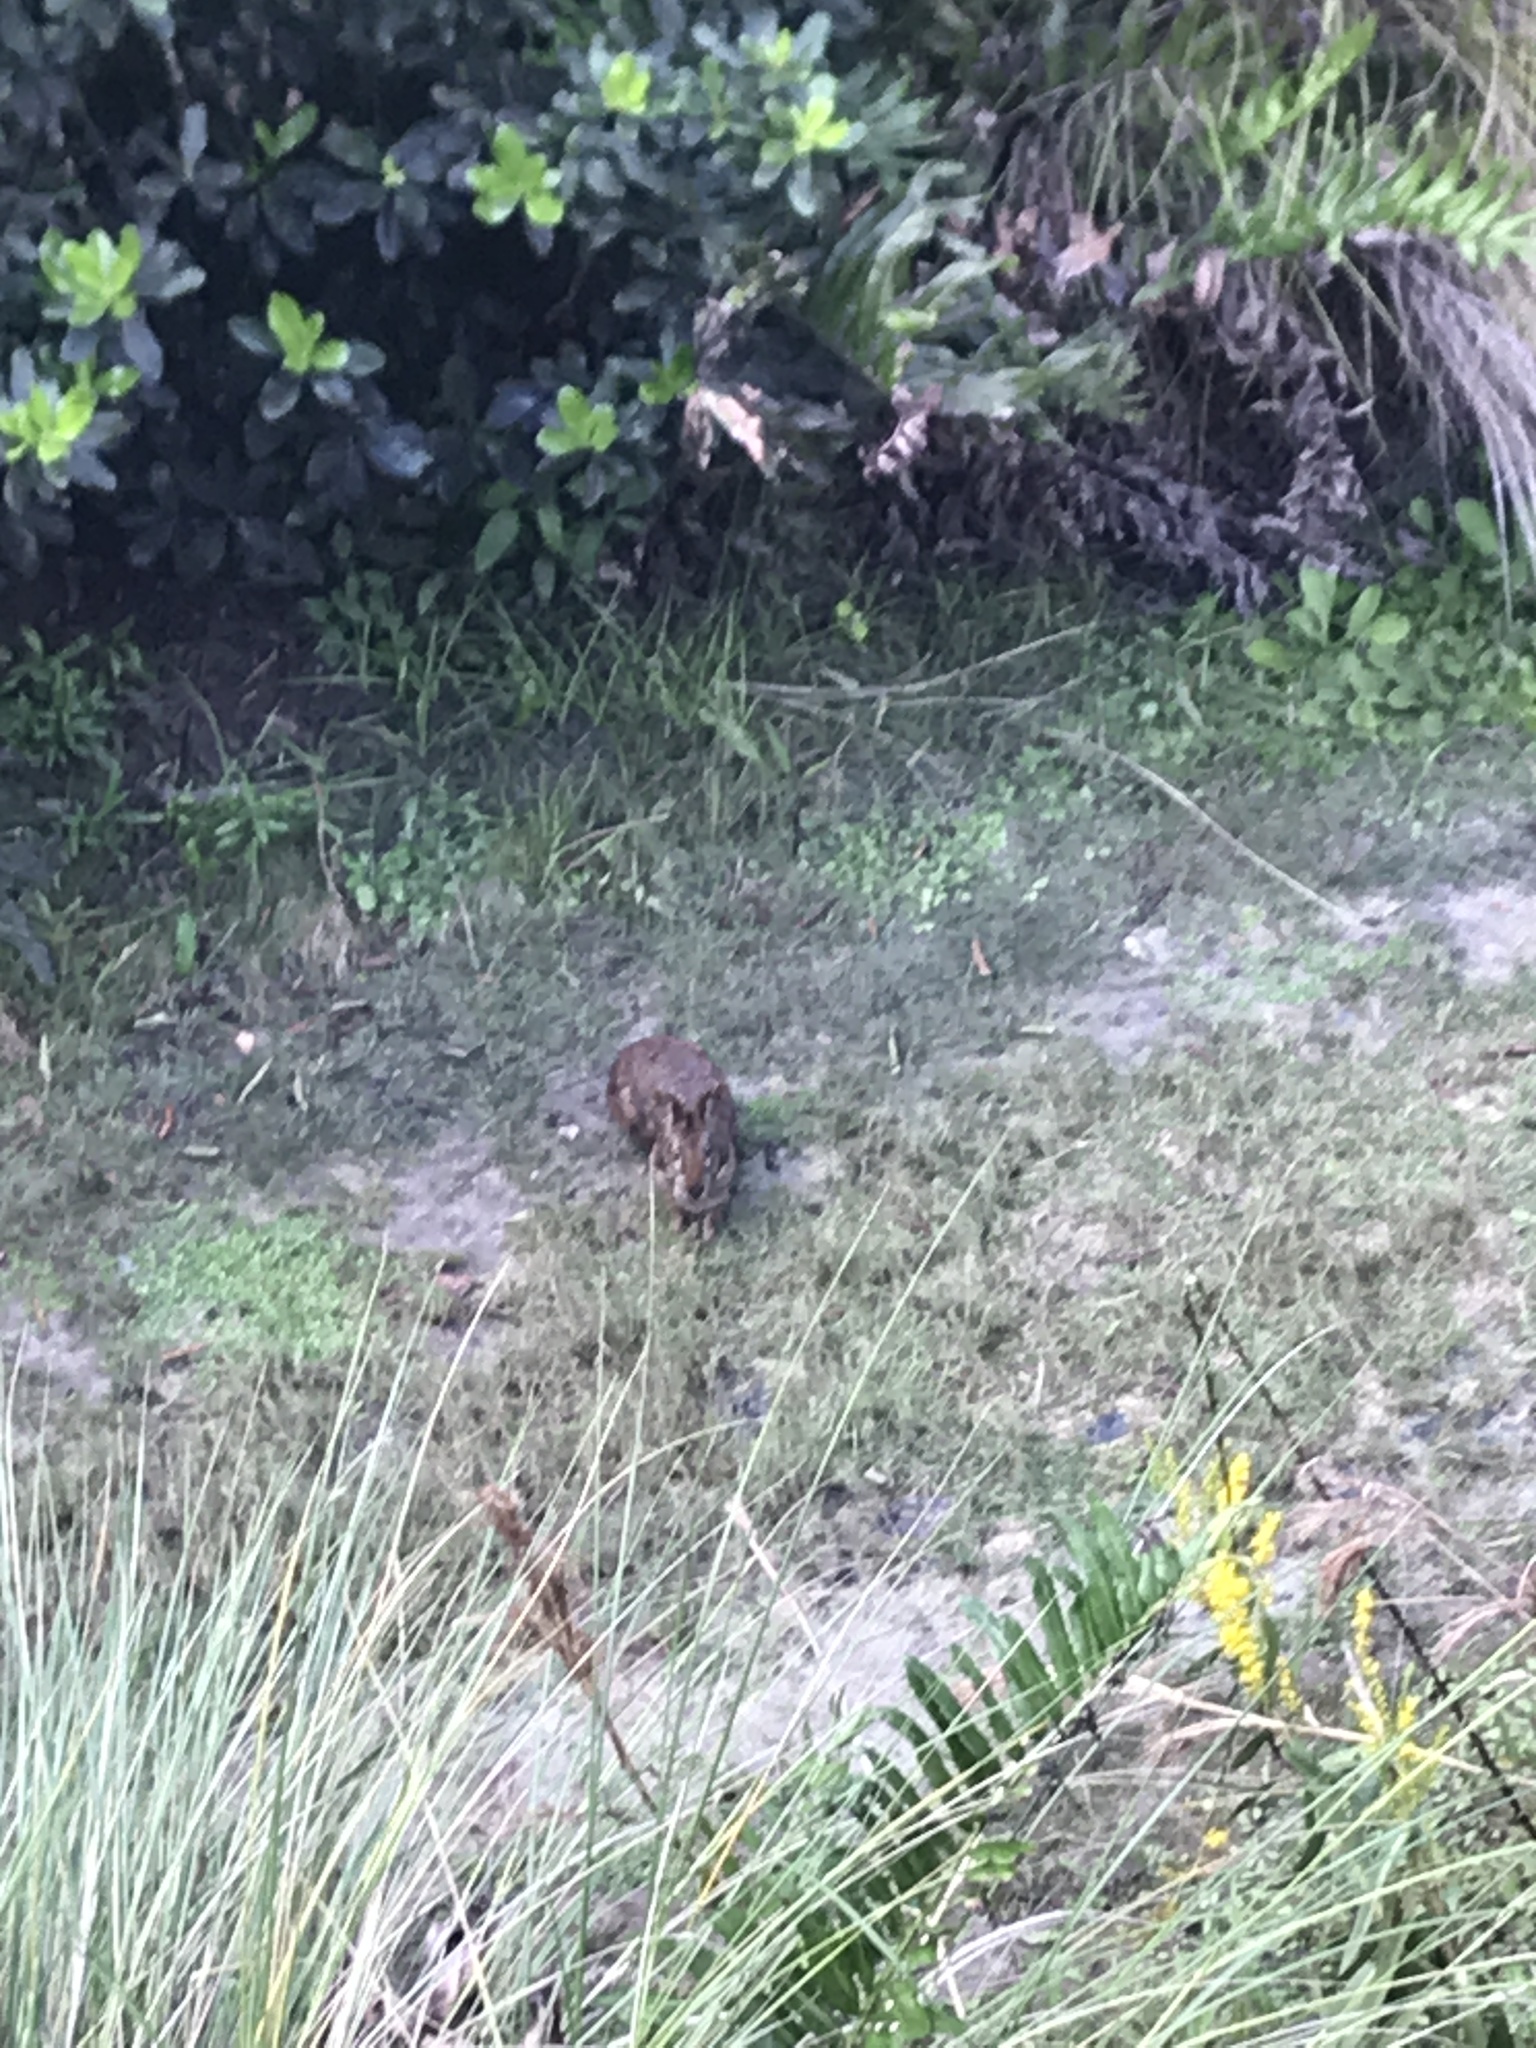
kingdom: Animalia
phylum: Chordata
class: Mammalia
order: Lagomorpha
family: Leporidae
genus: Sylvilagus
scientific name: Sylvilagus palustris
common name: Marsh rabbit
